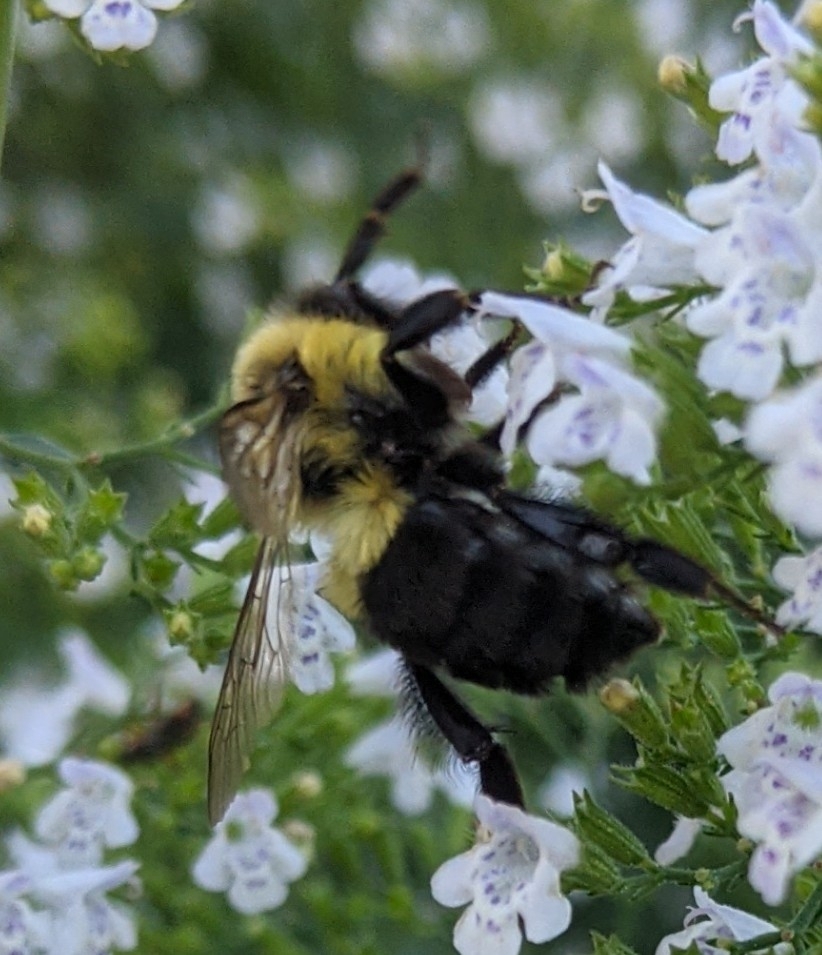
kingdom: Animalia
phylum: Arthropoda
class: Insecta
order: Hymenoptera
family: Apidae
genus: Bombus
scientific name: Bombus impatiens
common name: Common eastern bumble bee
